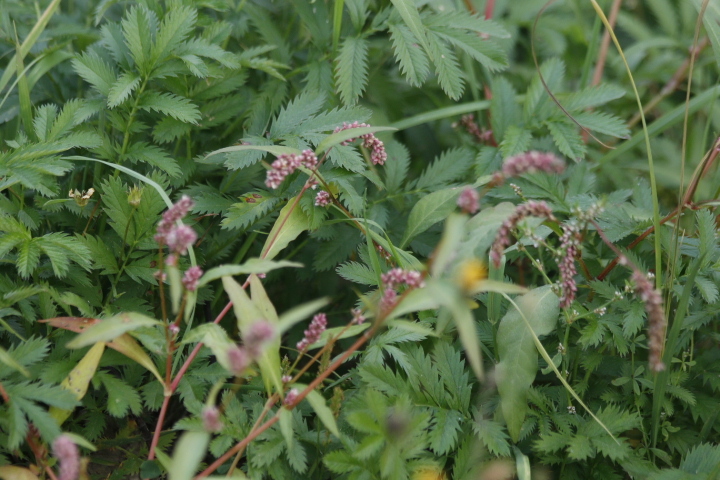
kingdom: Plantae
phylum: Tracheophyta
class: Magnoliopsida
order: Caryophyllales
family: Polygonaceae
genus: Persicaria
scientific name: Persicaria lapathifolia
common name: Curlytop knotweed
